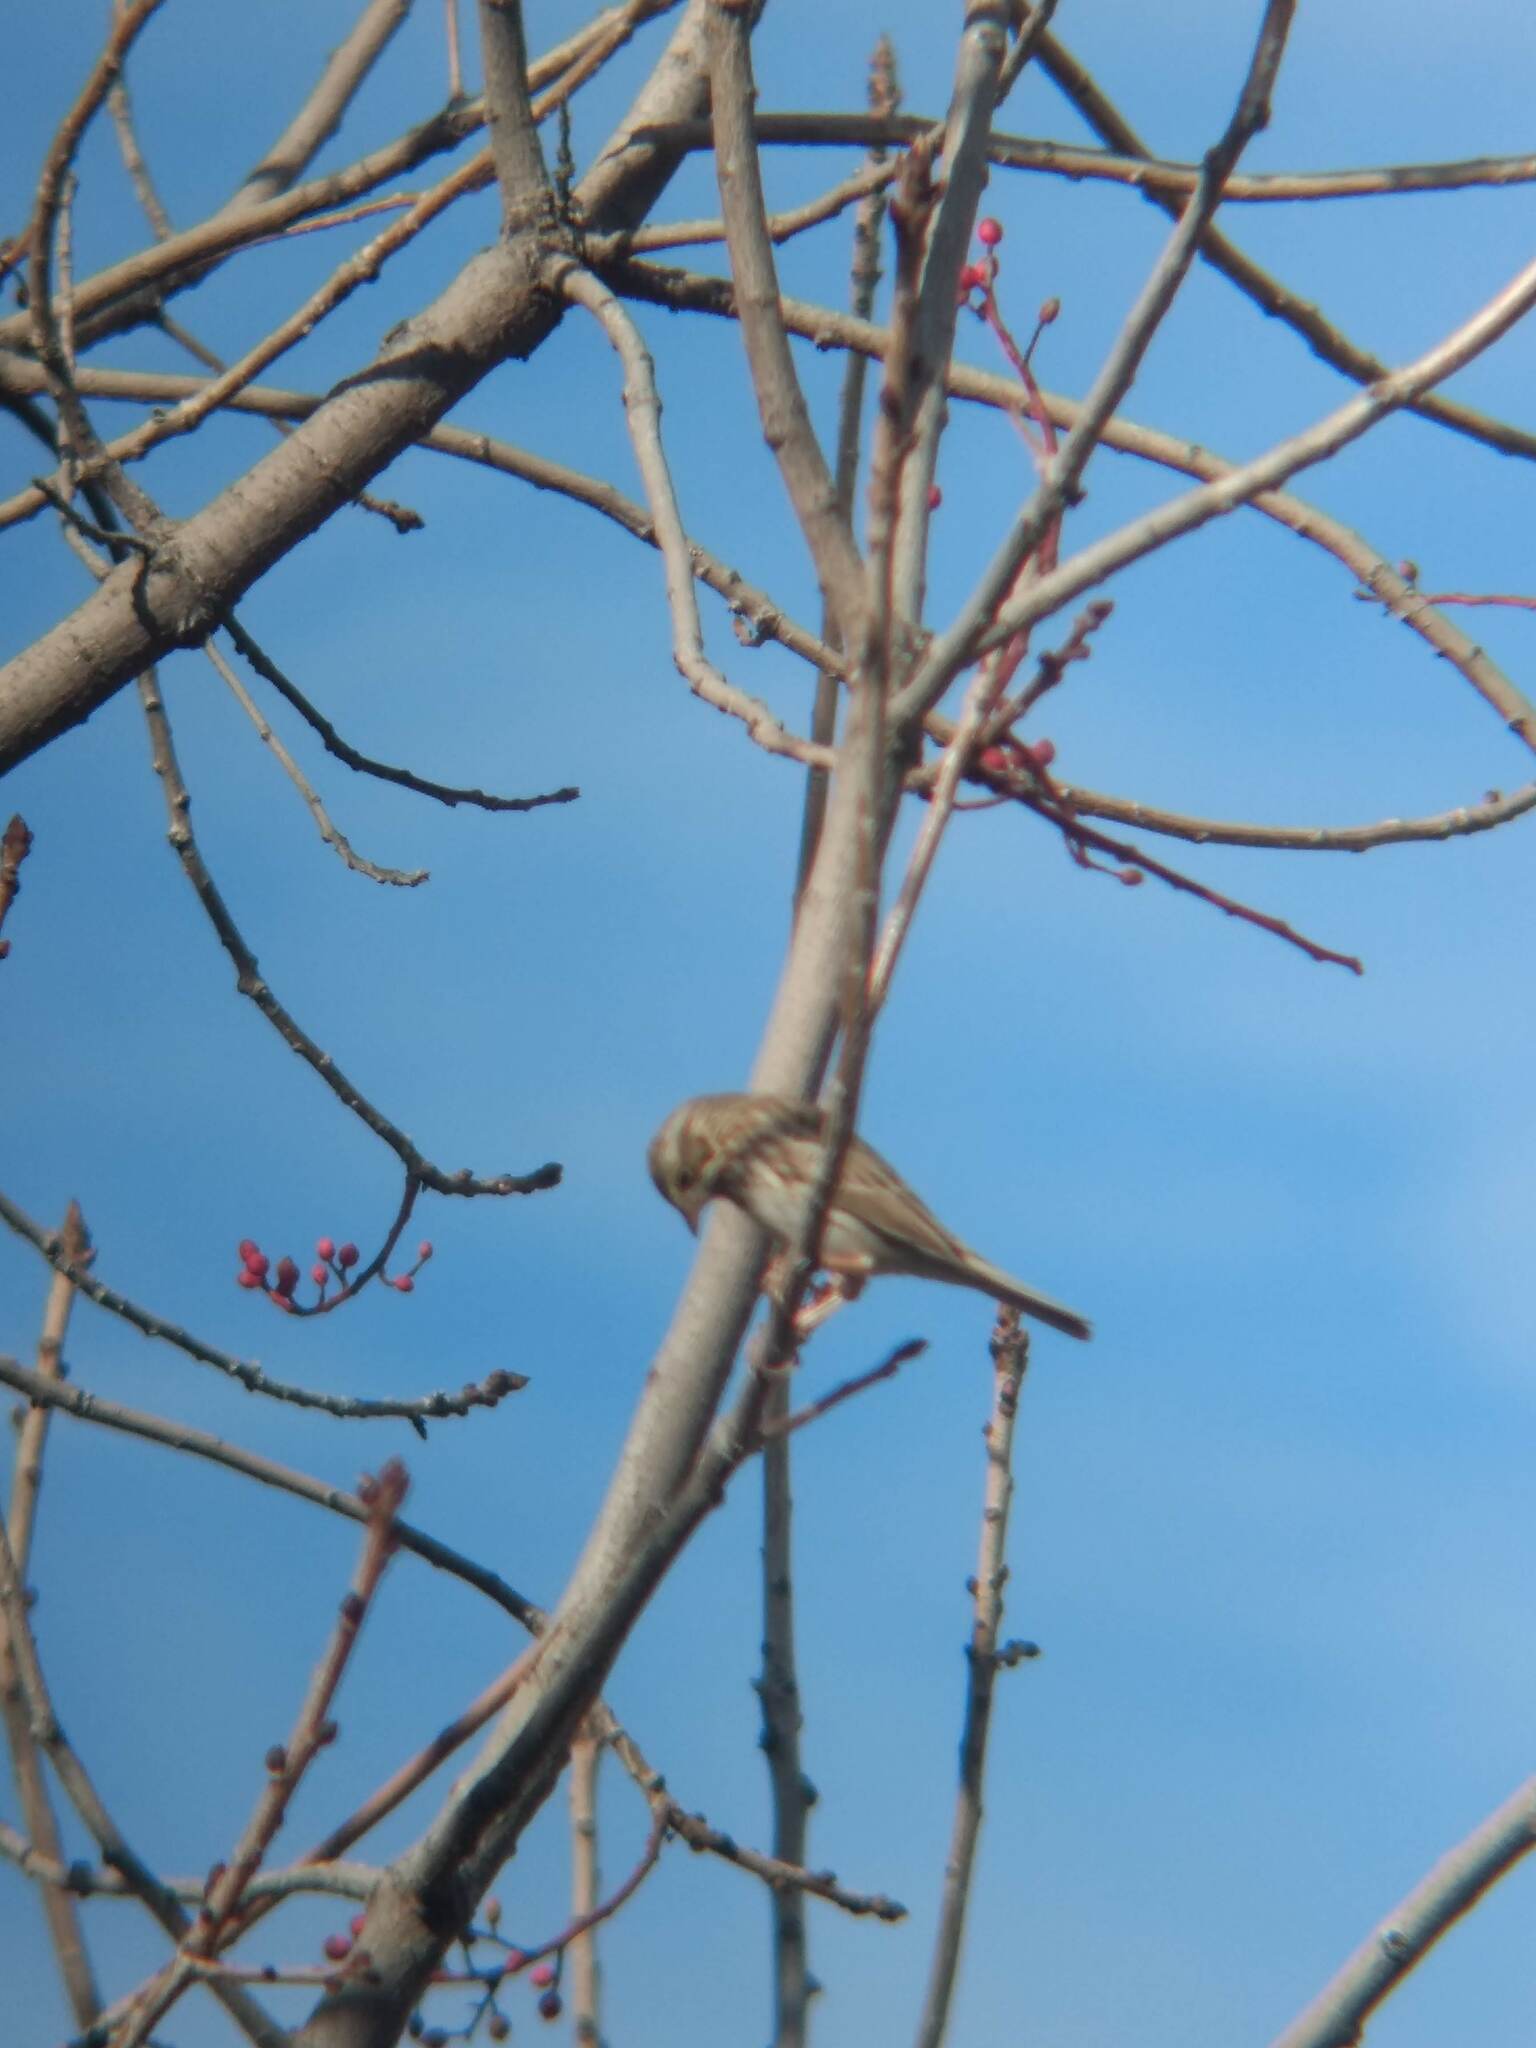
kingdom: Animalia
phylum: Chordata
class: Aves
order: Passeriformes
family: Passerellidae
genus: Passerculus
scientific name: Passerculus sandwichensis
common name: Savannah sparrow
